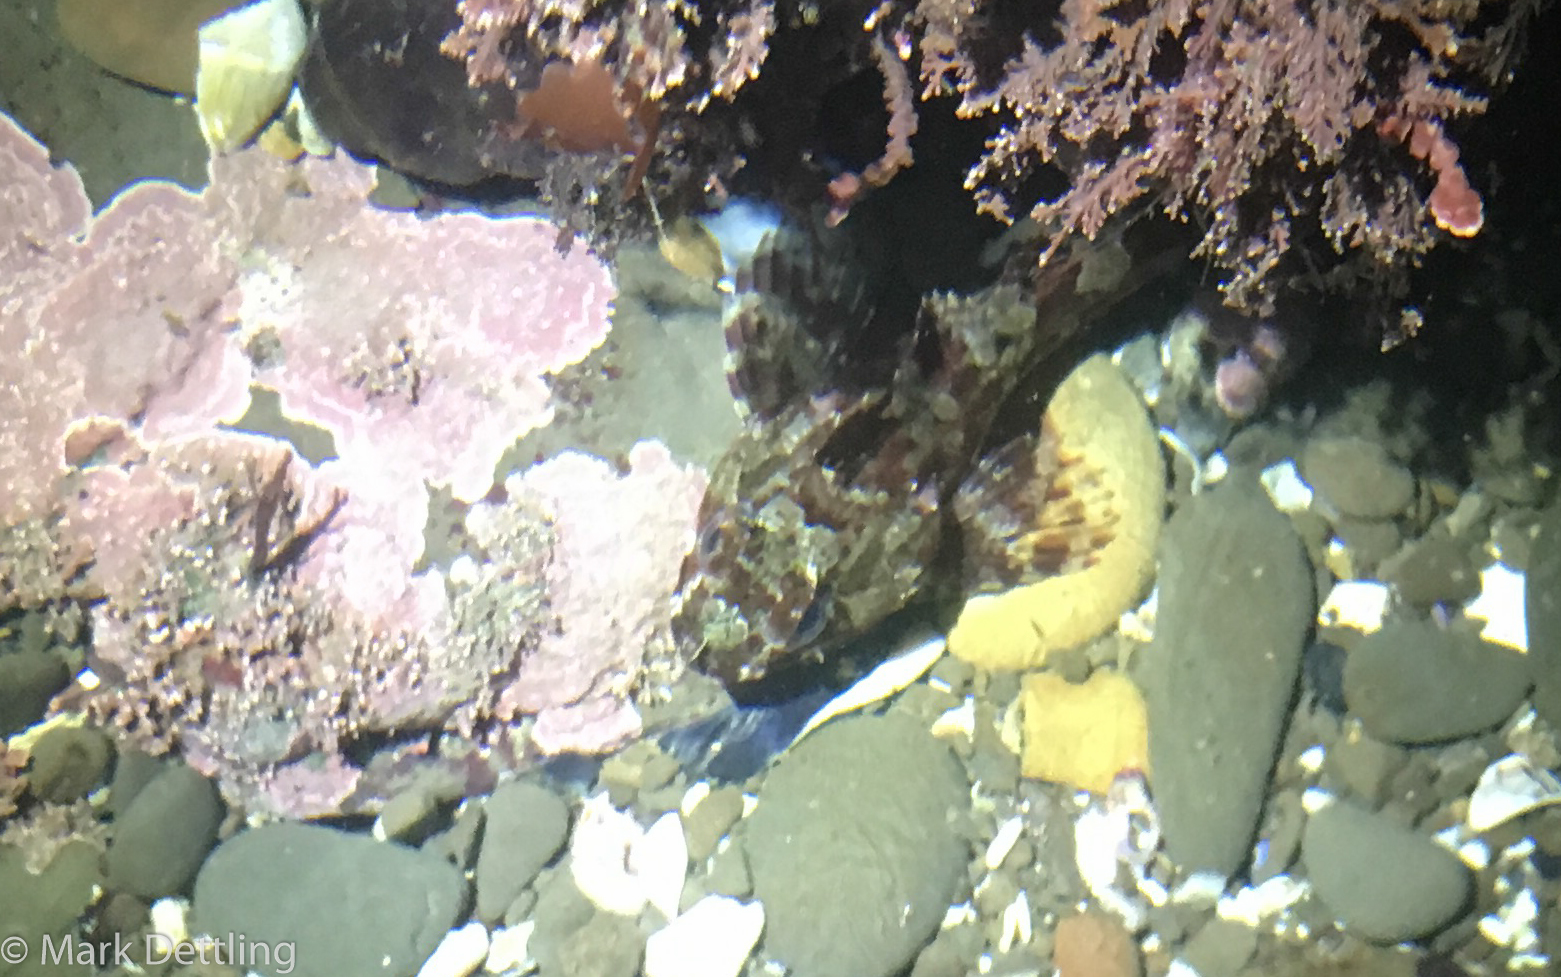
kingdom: Animalia
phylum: Chordata
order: Scorpaeniformes
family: Cottidae
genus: Scorpaenichthys
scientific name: Scorpaenichthys marmoratus
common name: Cabezon
